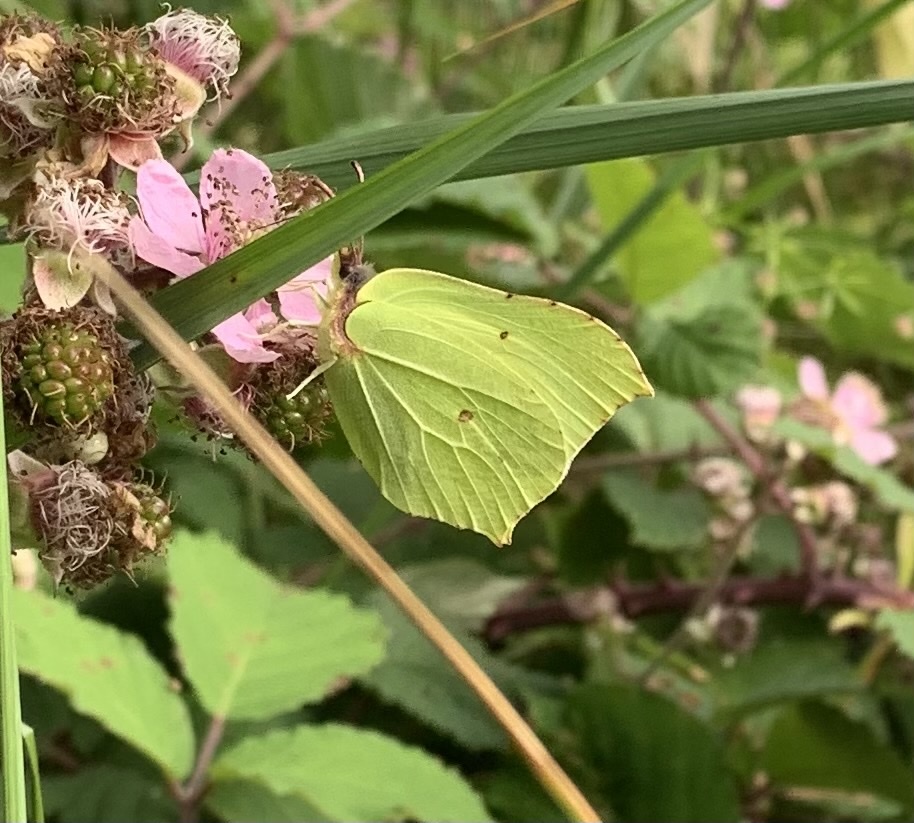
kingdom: Animalia
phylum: Arthropoda
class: Insecta
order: Lepidoptera
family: Pieridae
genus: Gonepteryx
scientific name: Gonepteryx rhamni
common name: Brimstone
